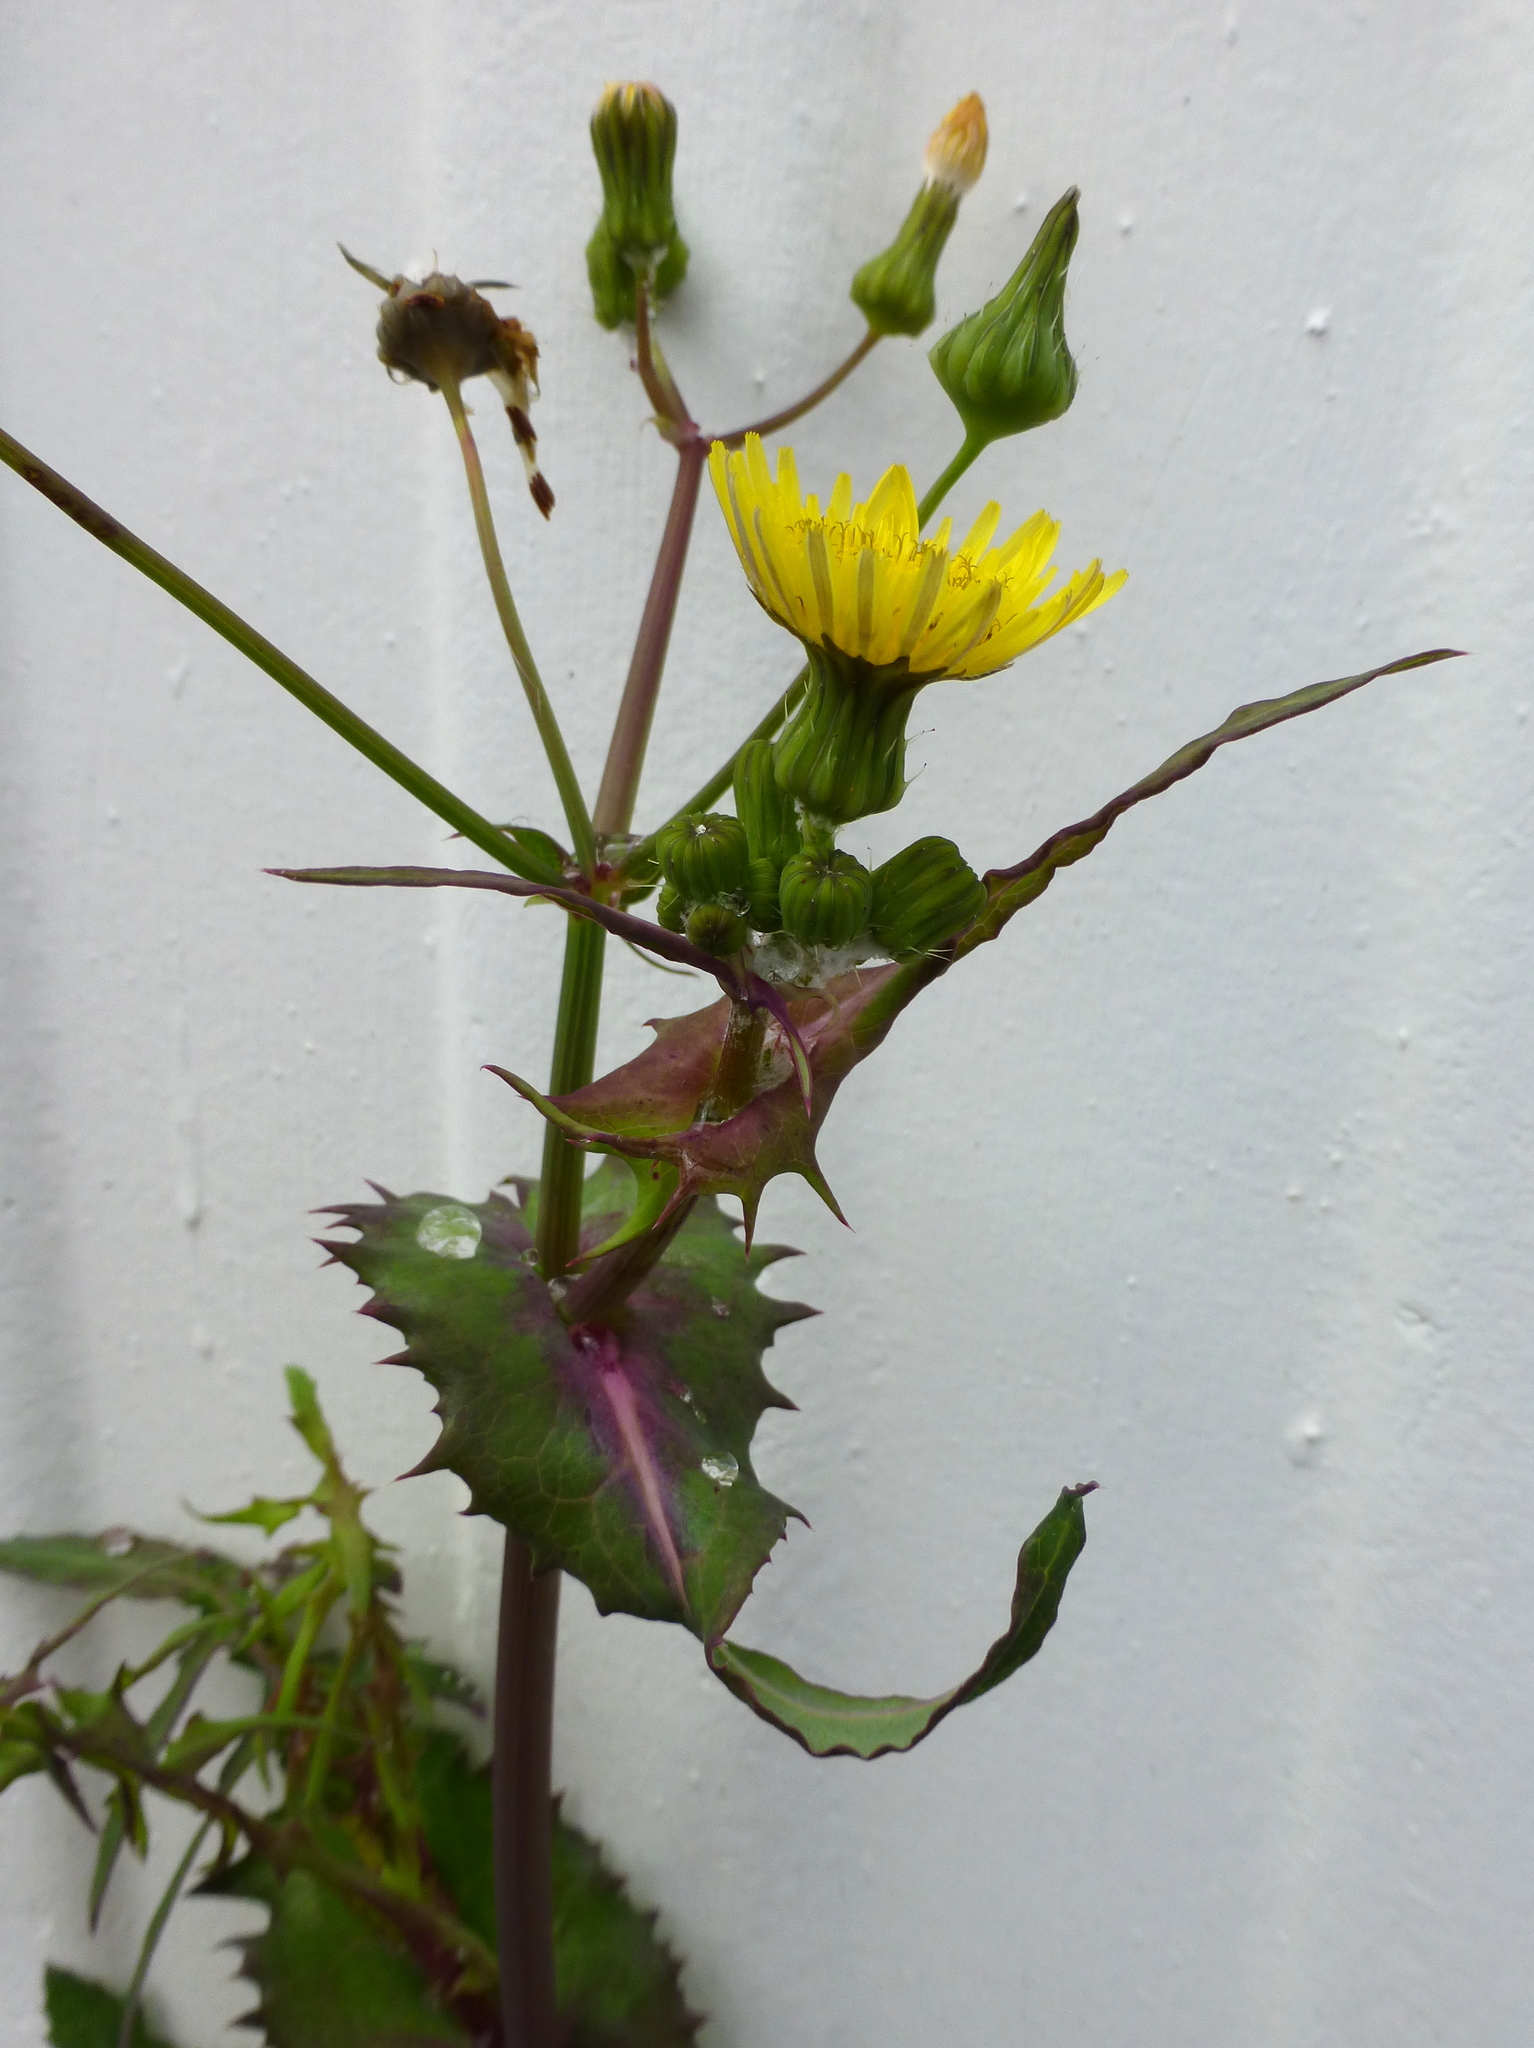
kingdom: Plantae
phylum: Tracheophyta
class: Magnoliopsida
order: Asterales
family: Asteraceae
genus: Sonchus
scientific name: Sonchus oleraceus
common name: Common sowthistle
